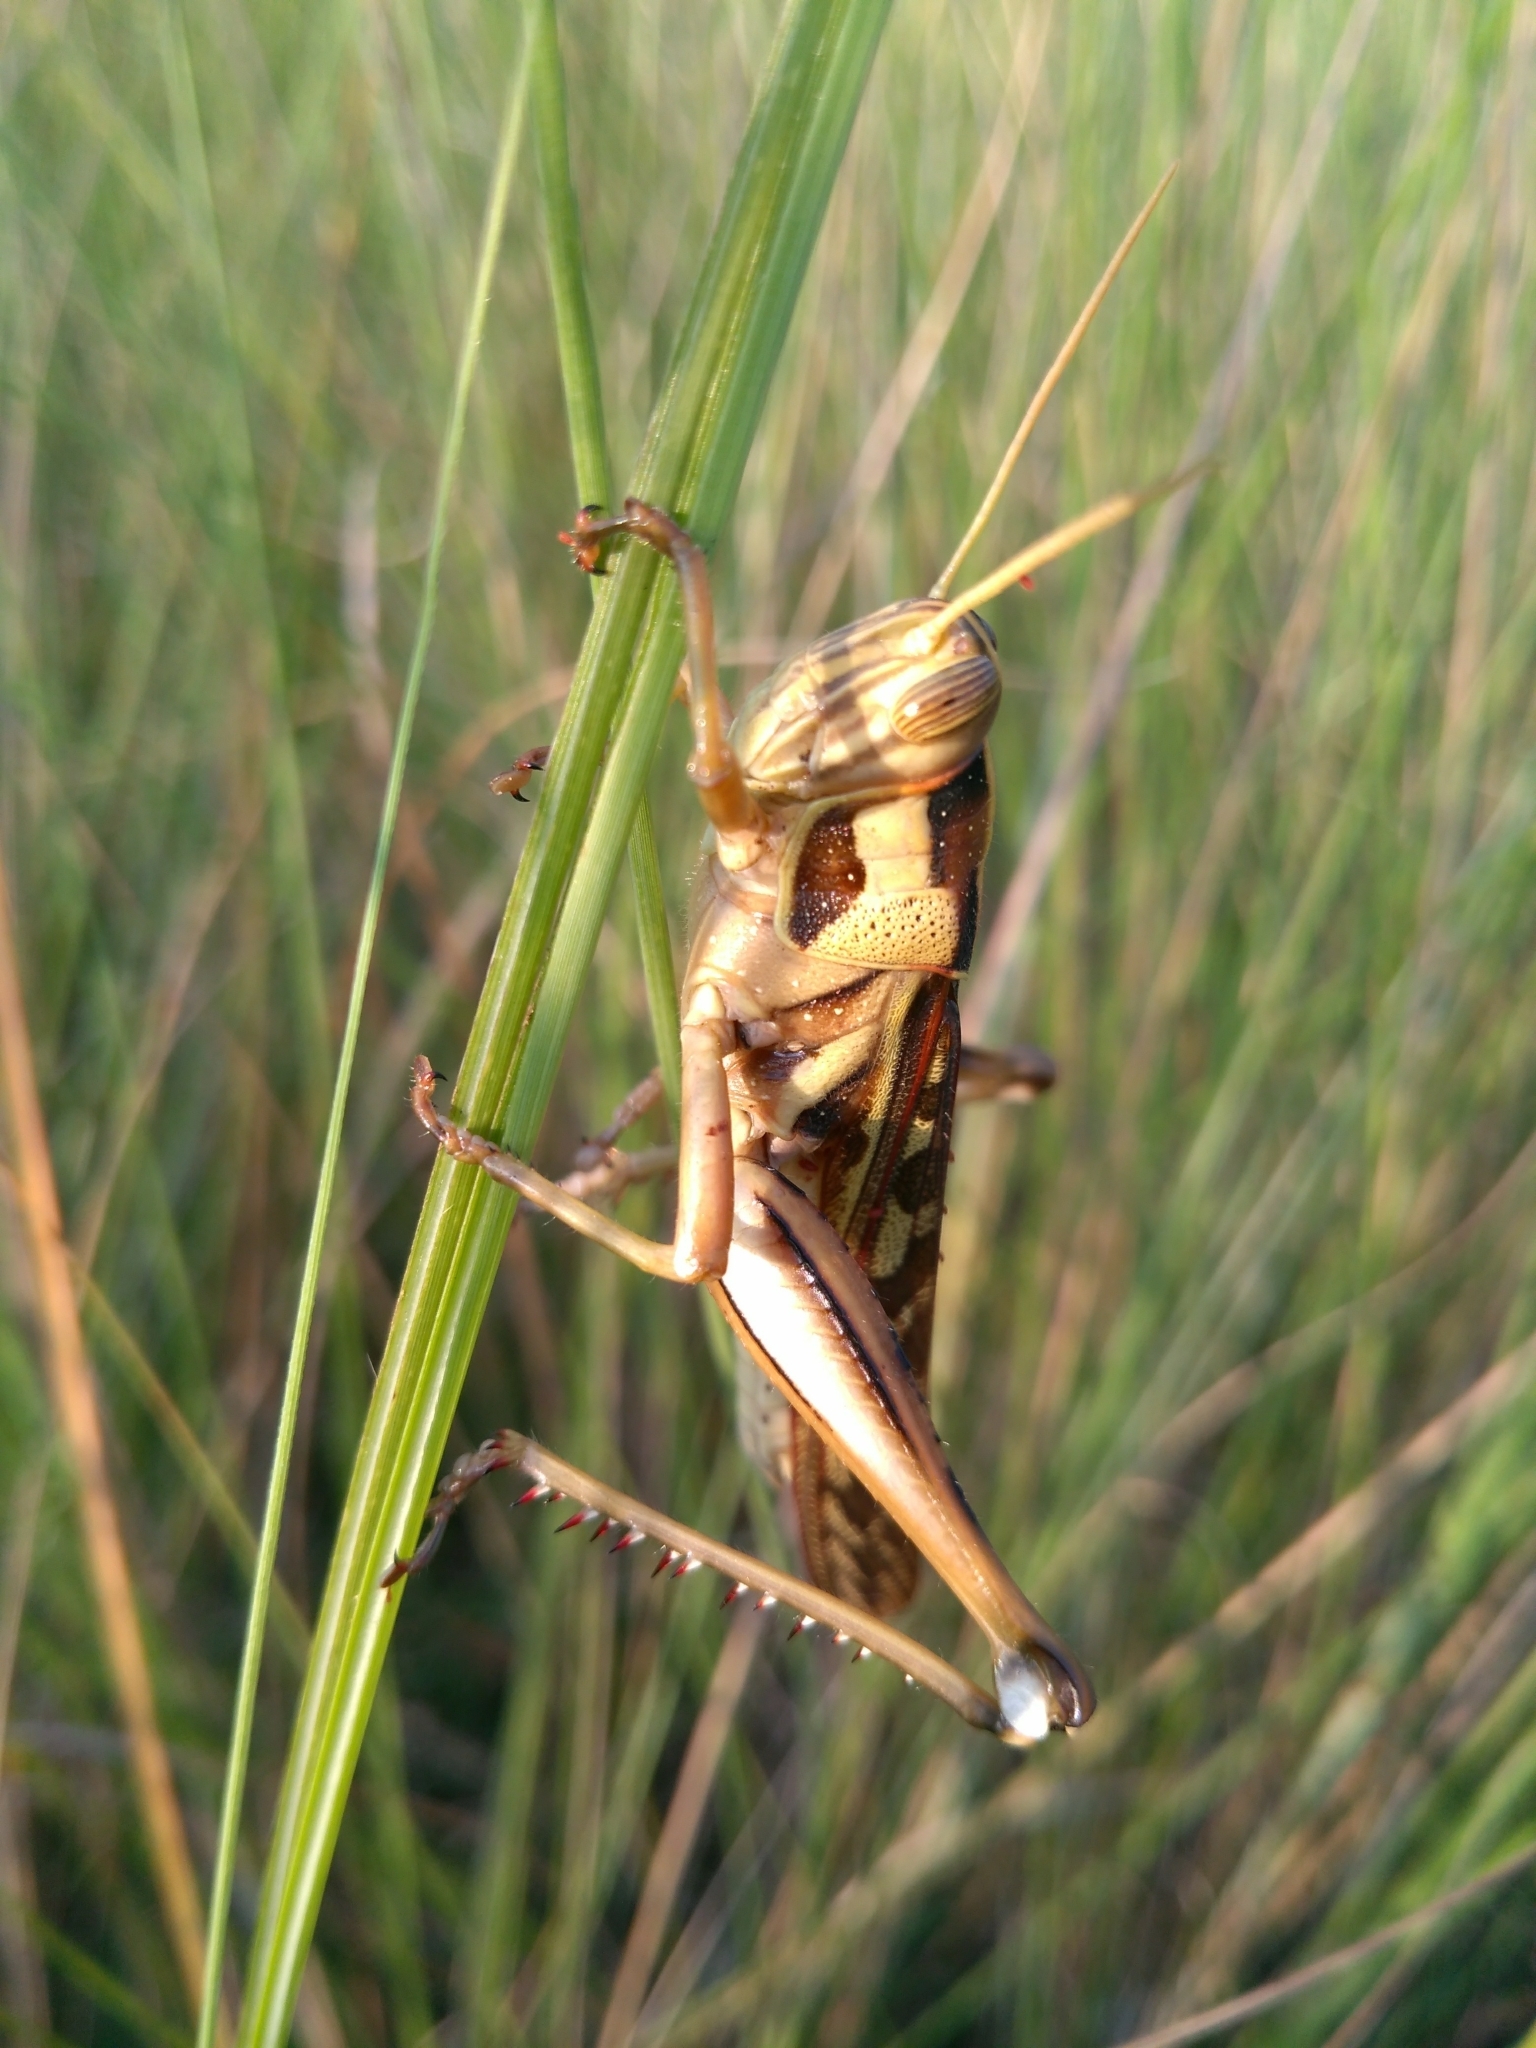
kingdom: Animalia
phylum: Arthropoda
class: Insecta
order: Orthoptera
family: Acrididae
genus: Cyrtacanthacris
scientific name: Cyrtacanthacris tatarica
